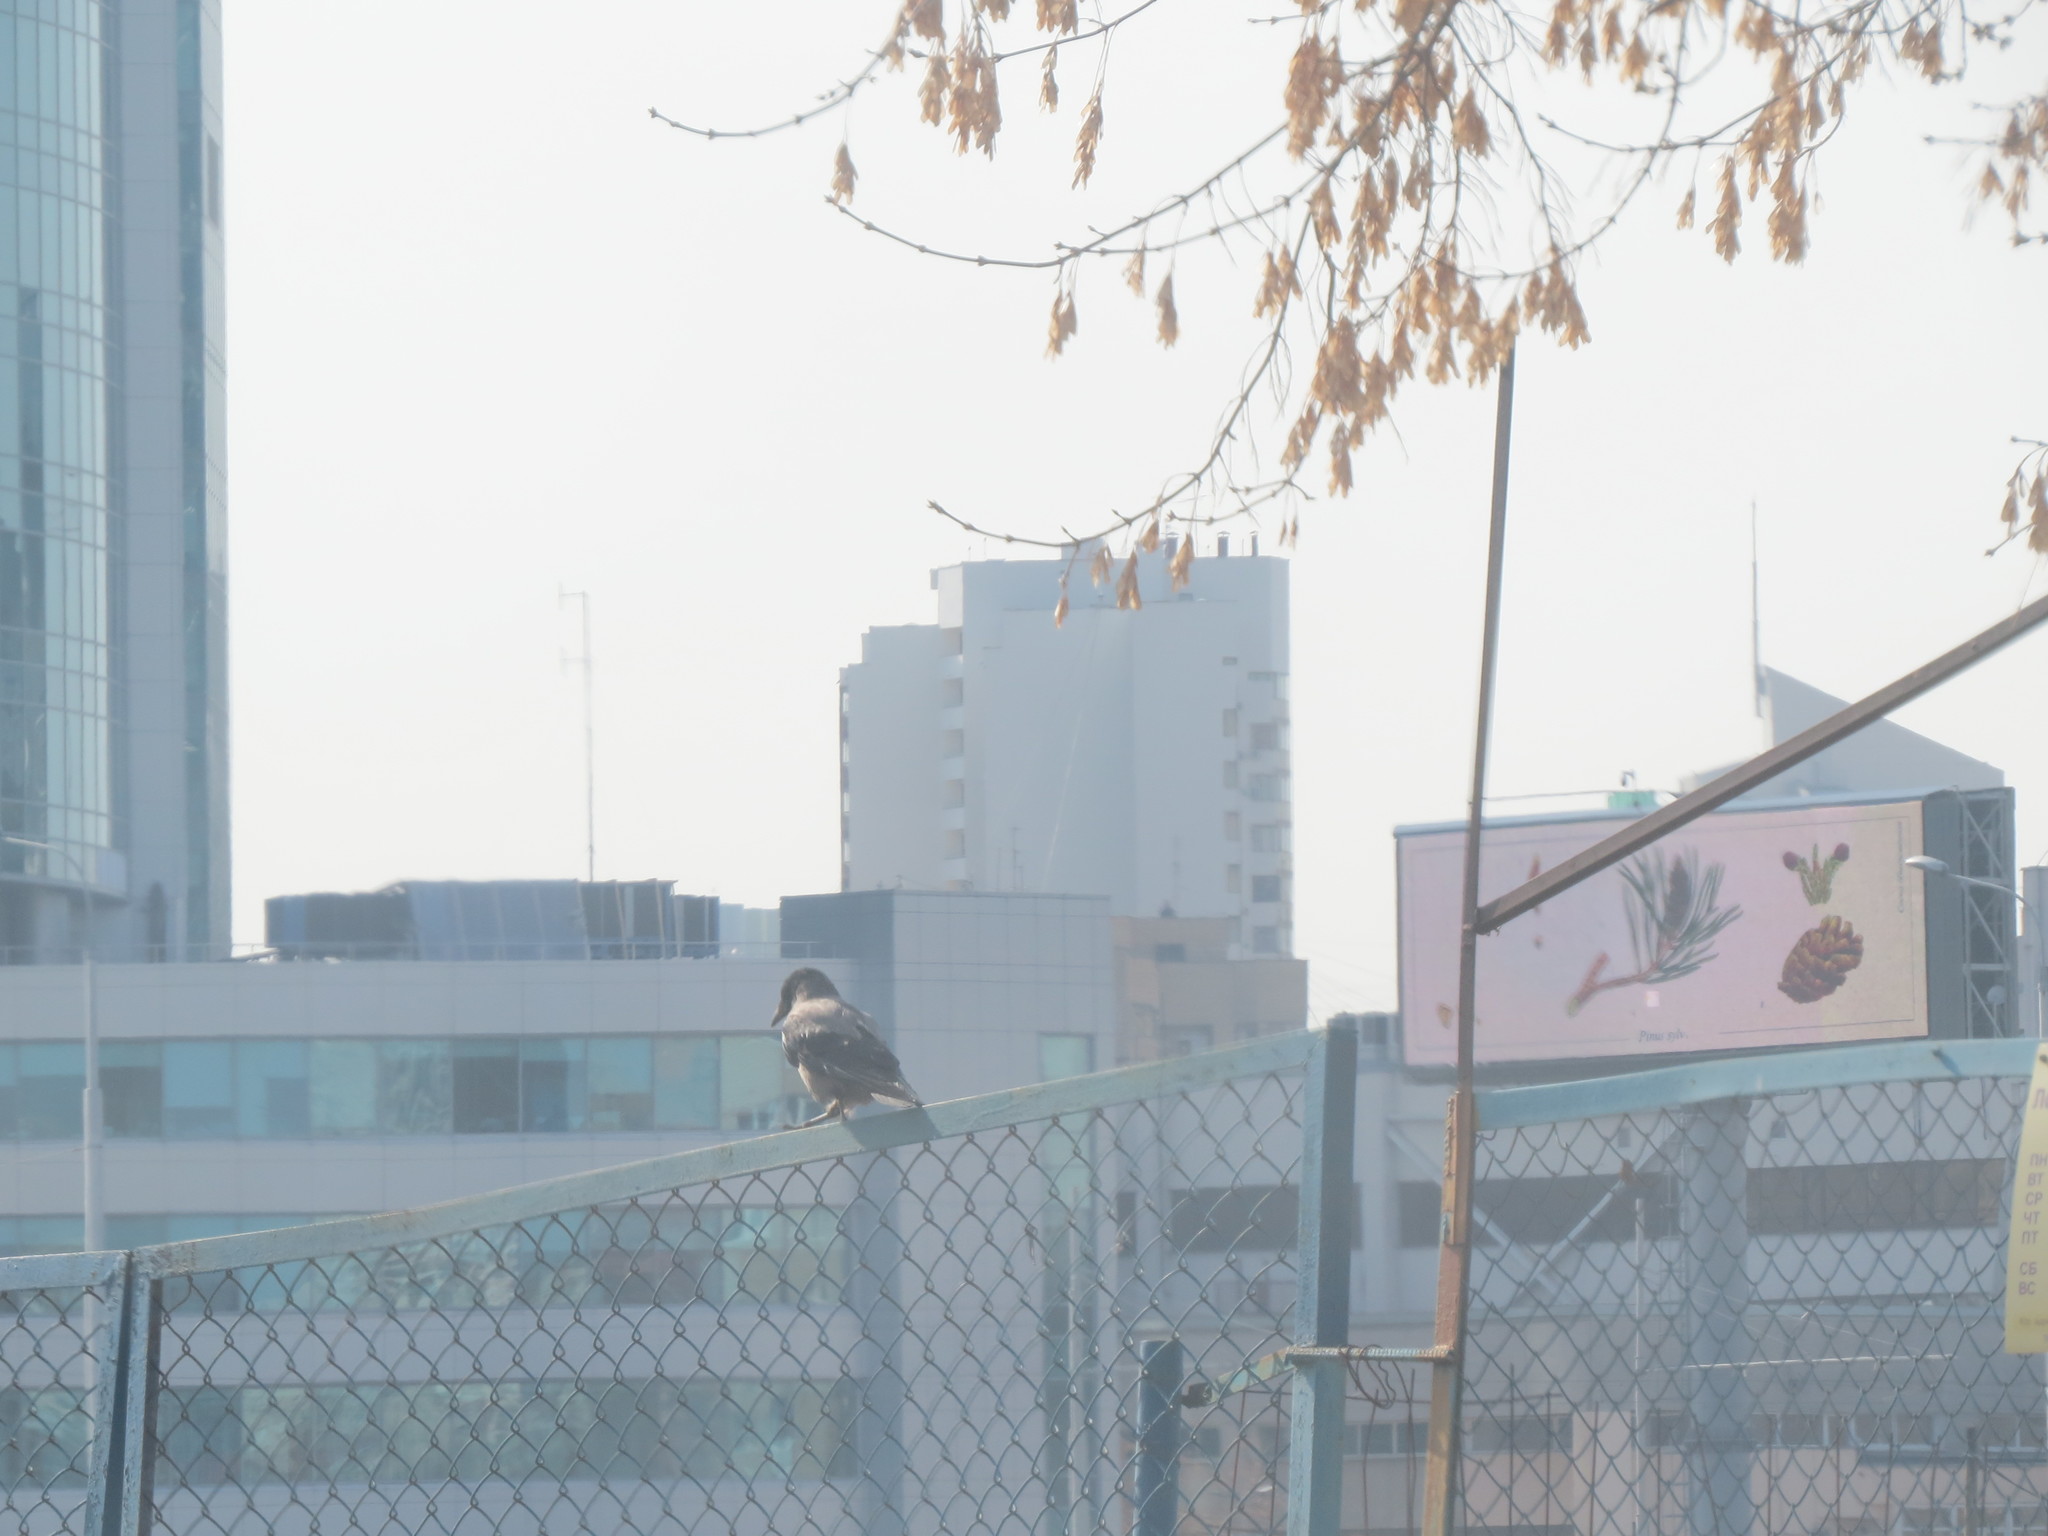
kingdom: Animalia
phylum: Chordata
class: Aves
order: Passeriformes
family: Corvidae
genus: Corvus
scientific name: Corvus cornix
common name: Hooded crow
